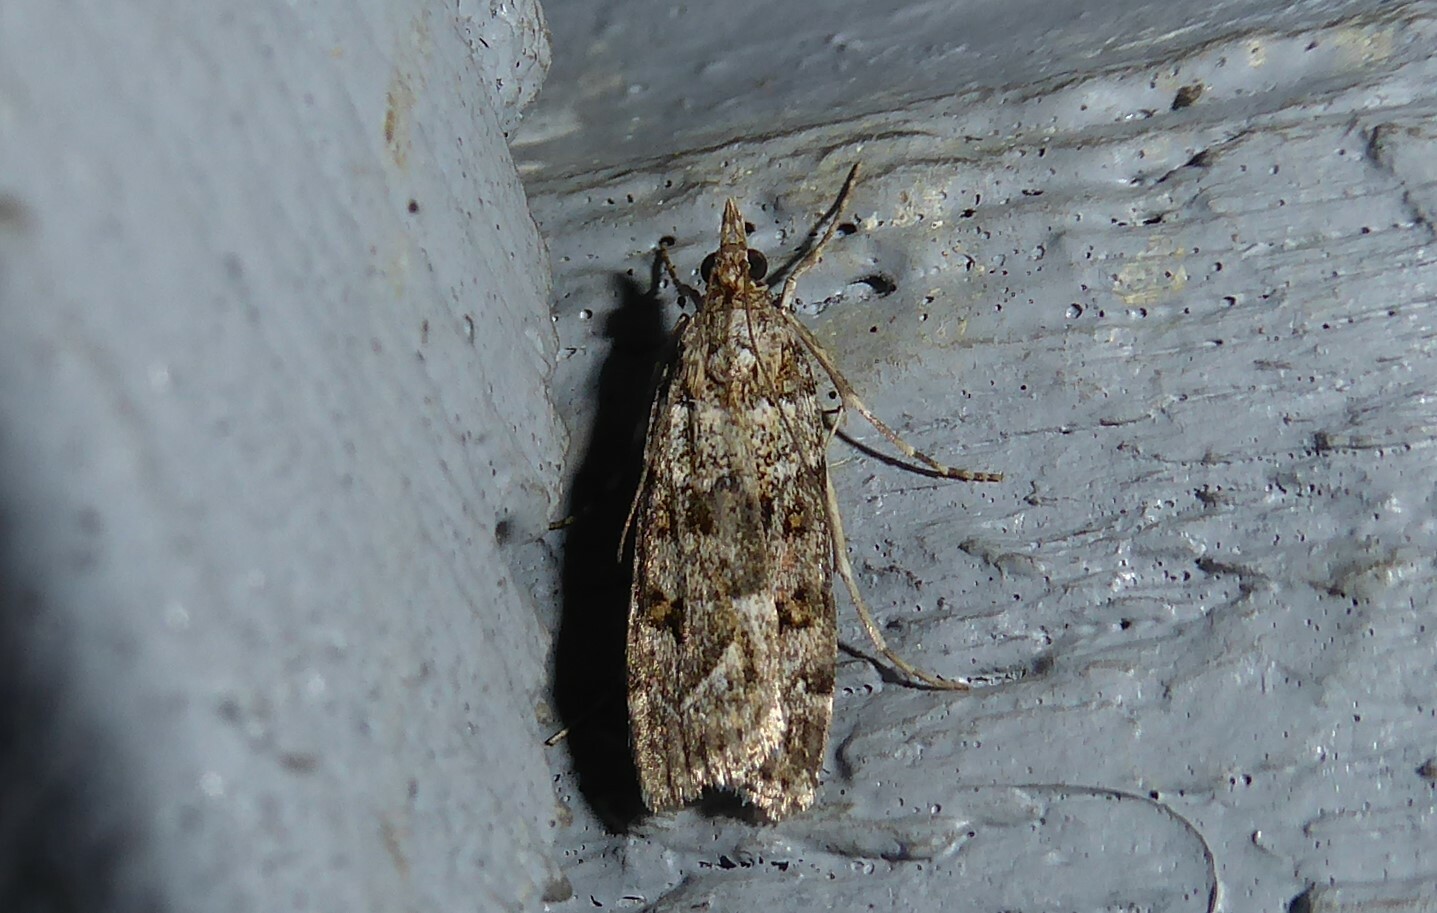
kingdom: Animalia
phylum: Arthropoda
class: Insecta
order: Lepidoptera
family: Crambidae
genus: Scoparia
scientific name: Scoparia tetracycla
